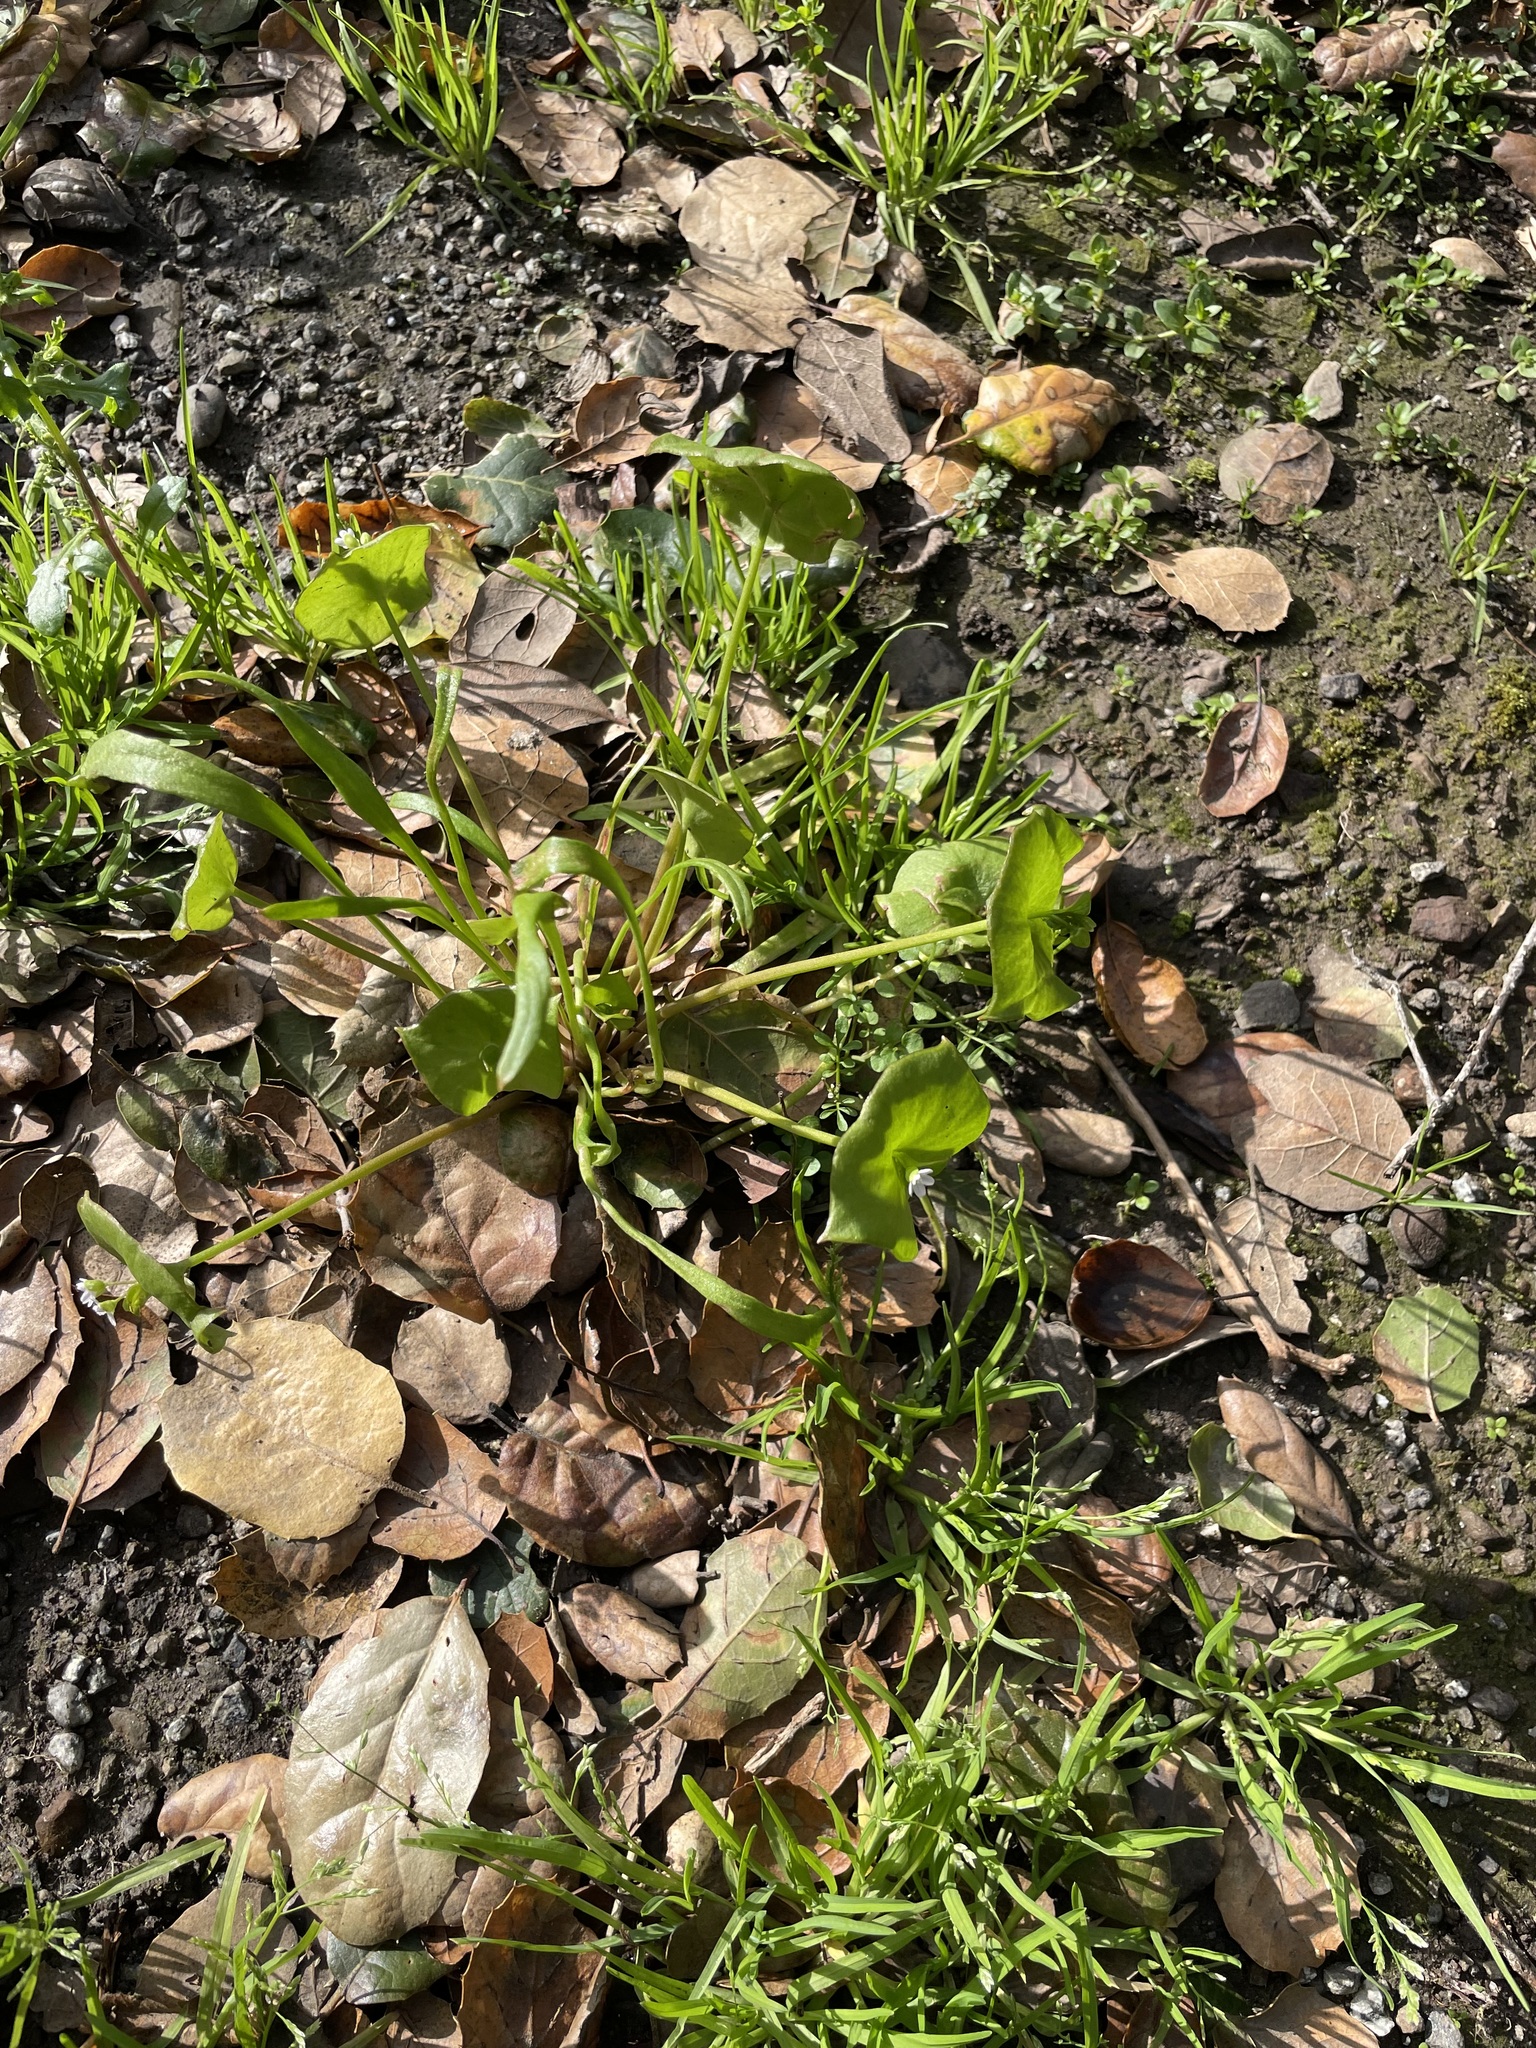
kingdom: Plantae
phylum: Tracheophyta
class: Magnoliopsida
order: Caryophyllales
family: Montiaceae
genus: Claytonia
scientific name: Claytonia perfoliata
